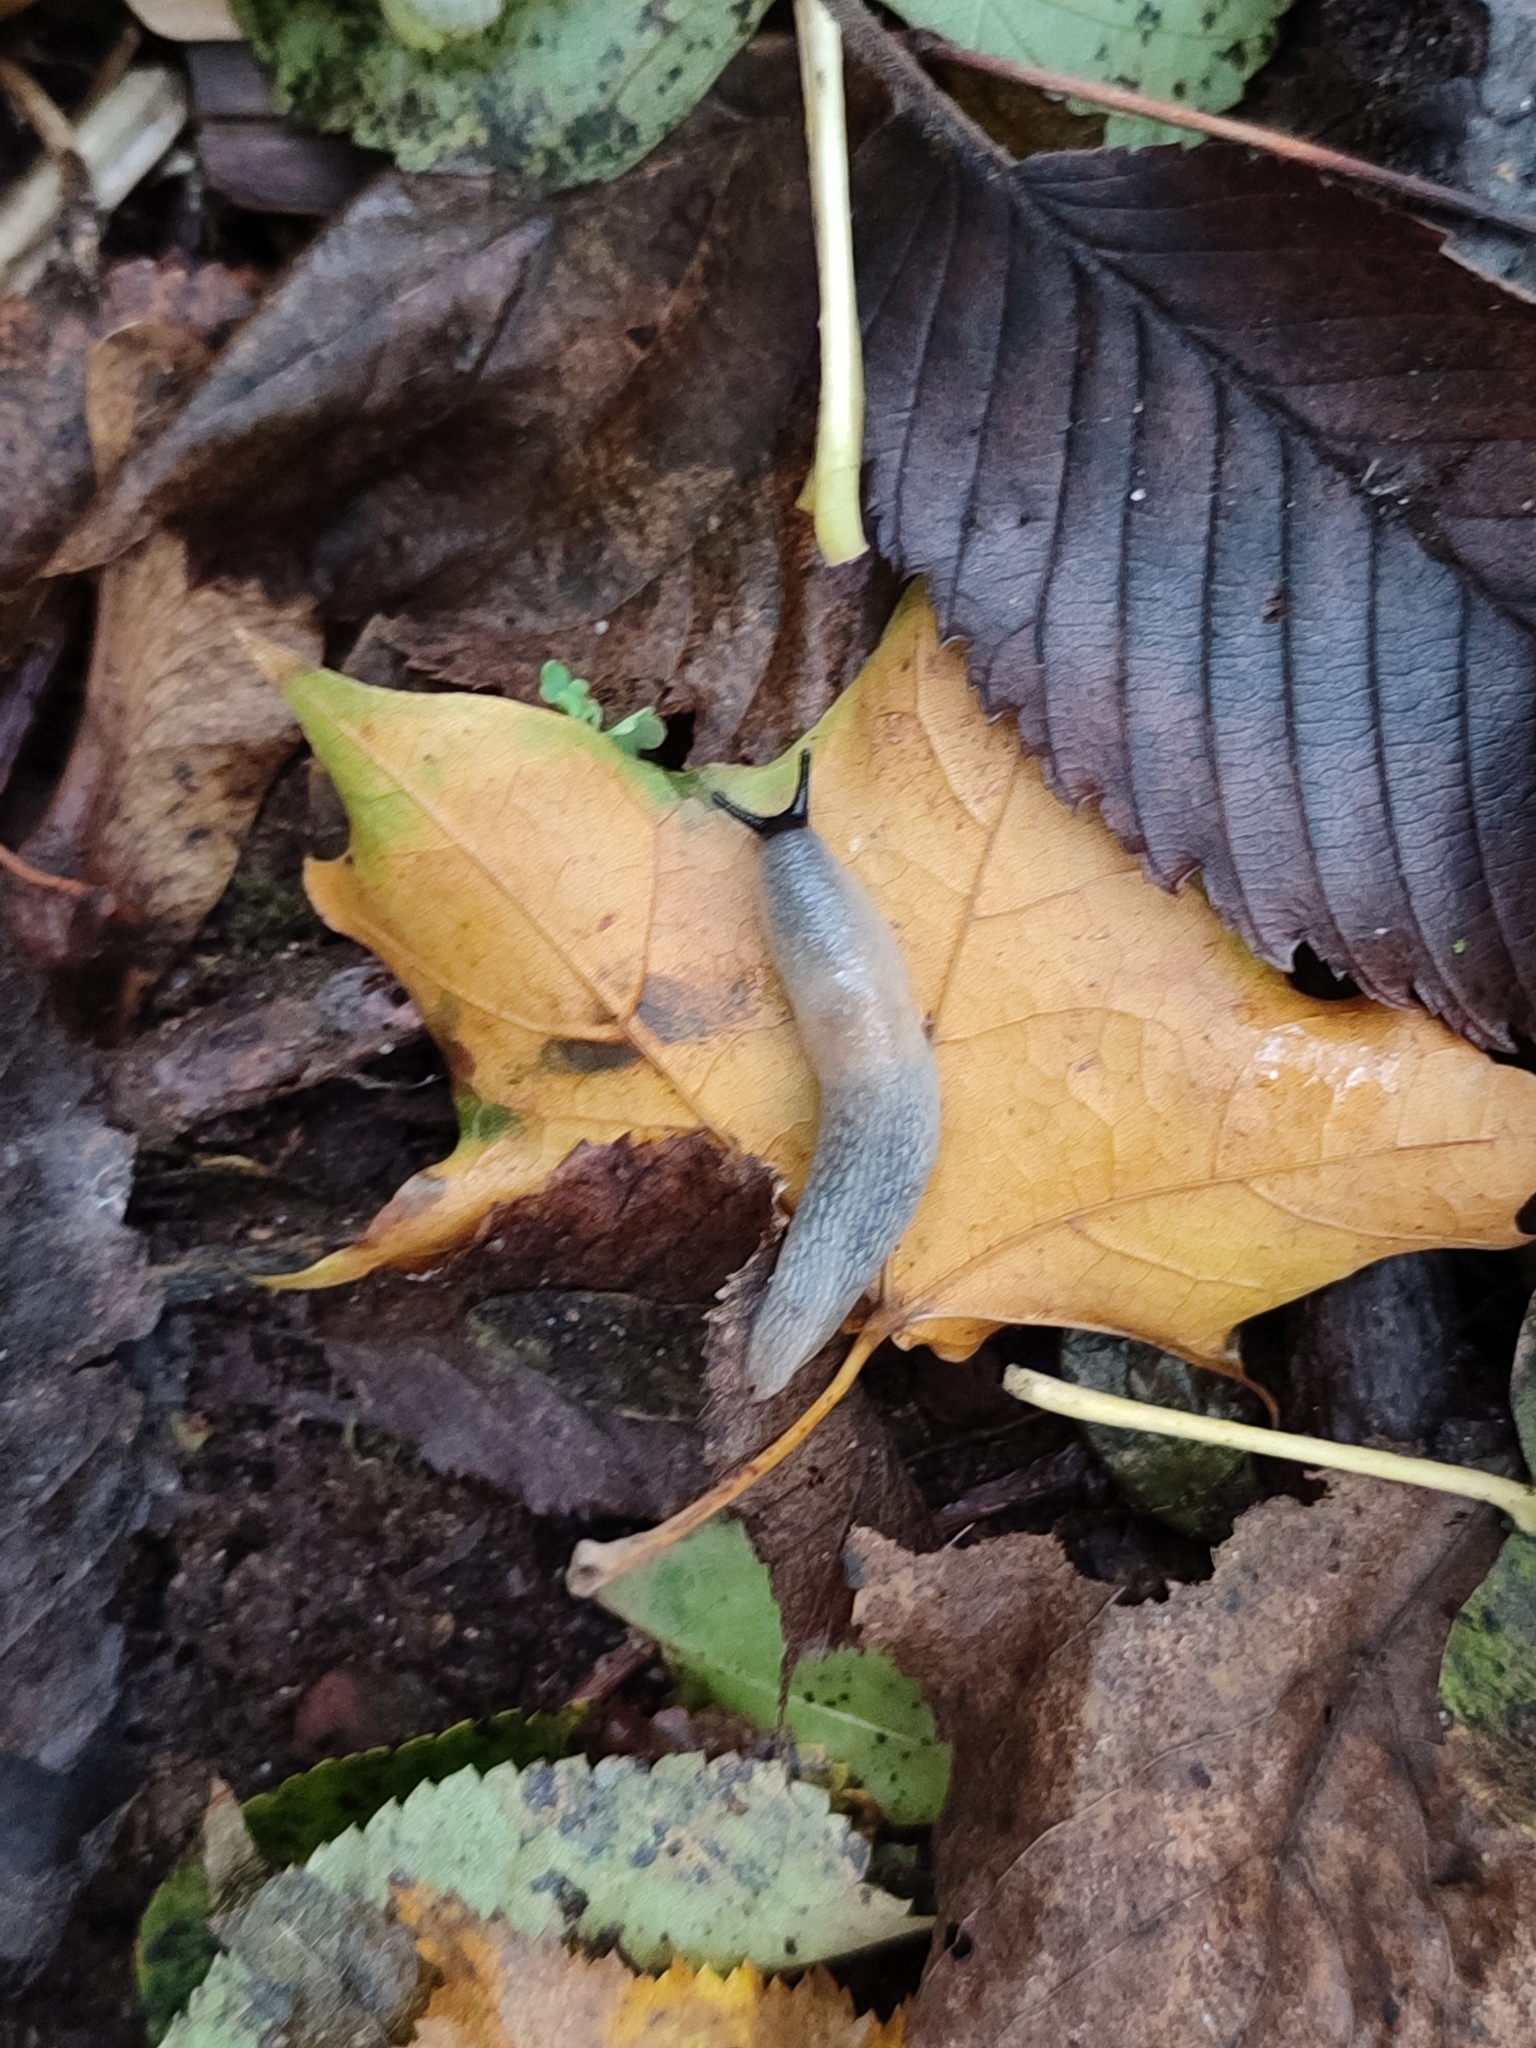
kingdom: Animalia
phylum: Mollusca
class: Gastropoda
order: Stylommatophora
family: Agriolimacidae
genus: Krynickillus
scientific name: Krynickillus melanocephalus
